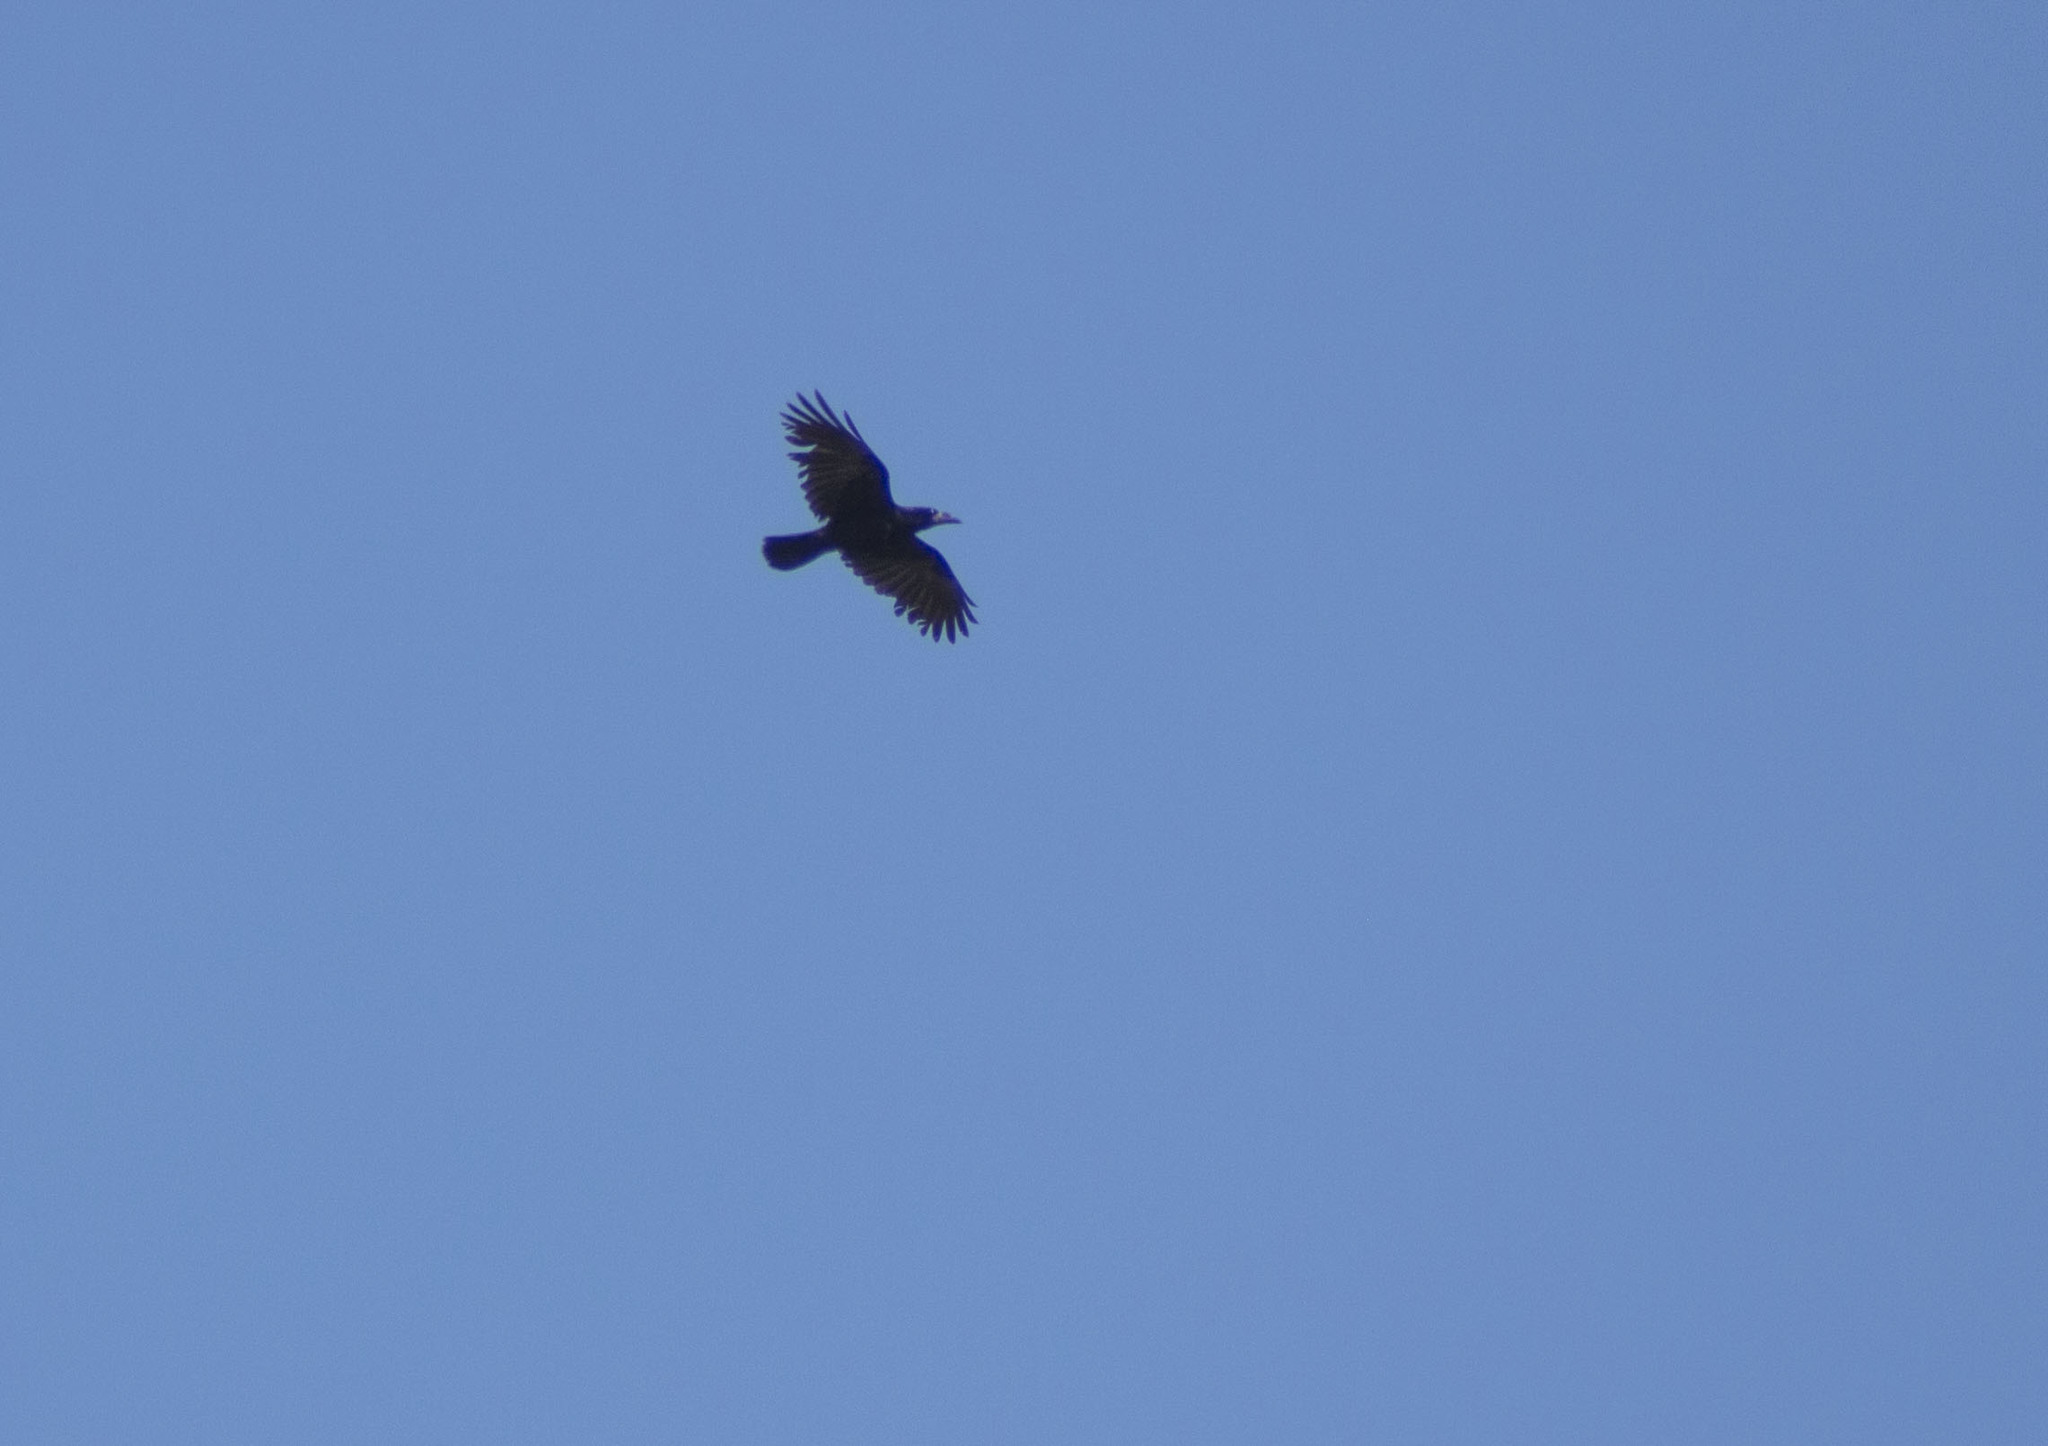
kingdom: Animalia
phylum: Chordata
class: Aves
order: Passeriformes
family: Corvidae
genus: Corvus
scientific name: Corvus frugilegus
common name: Rook
